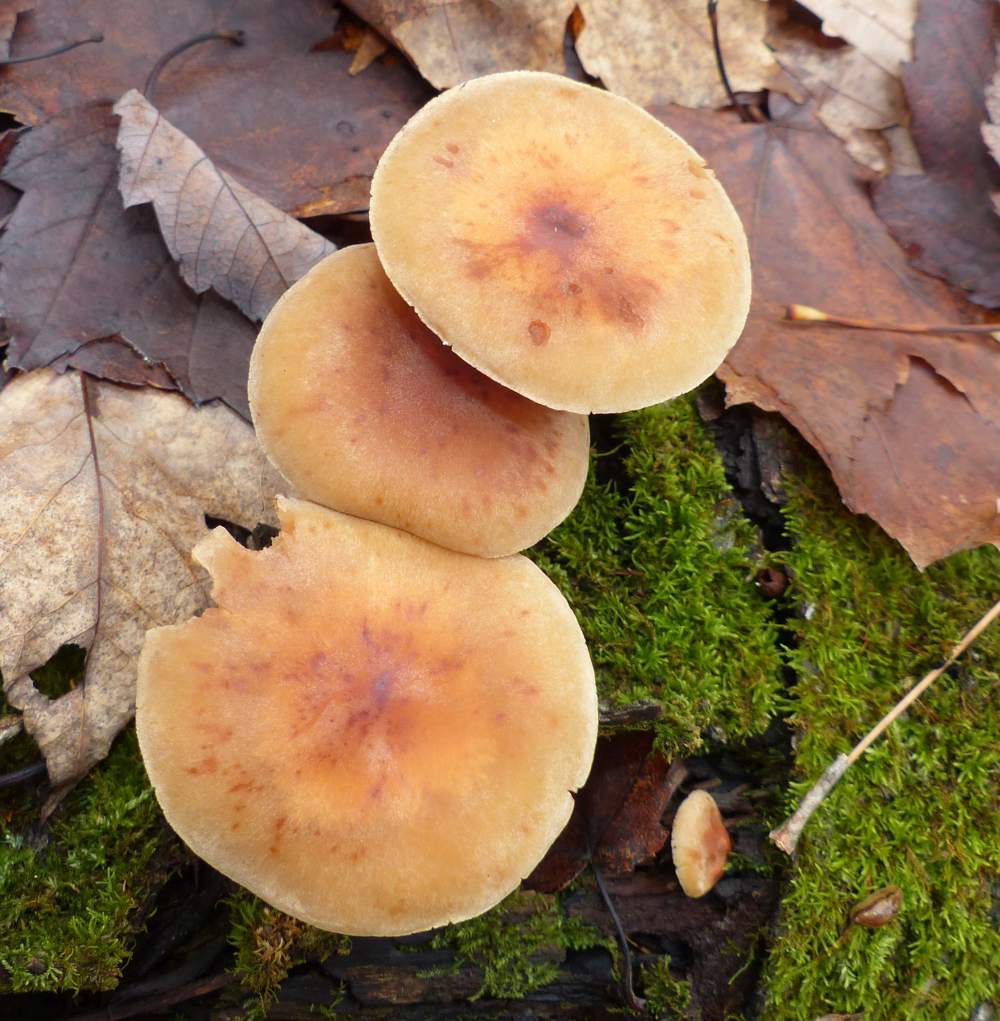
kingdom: Fungi
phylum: Basidiomycota
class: Agaricomycetes
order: Agaricales
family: Strophariaceae
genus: Hypholoma
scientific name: Hypholoma capnoides
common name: Conifer tuft
